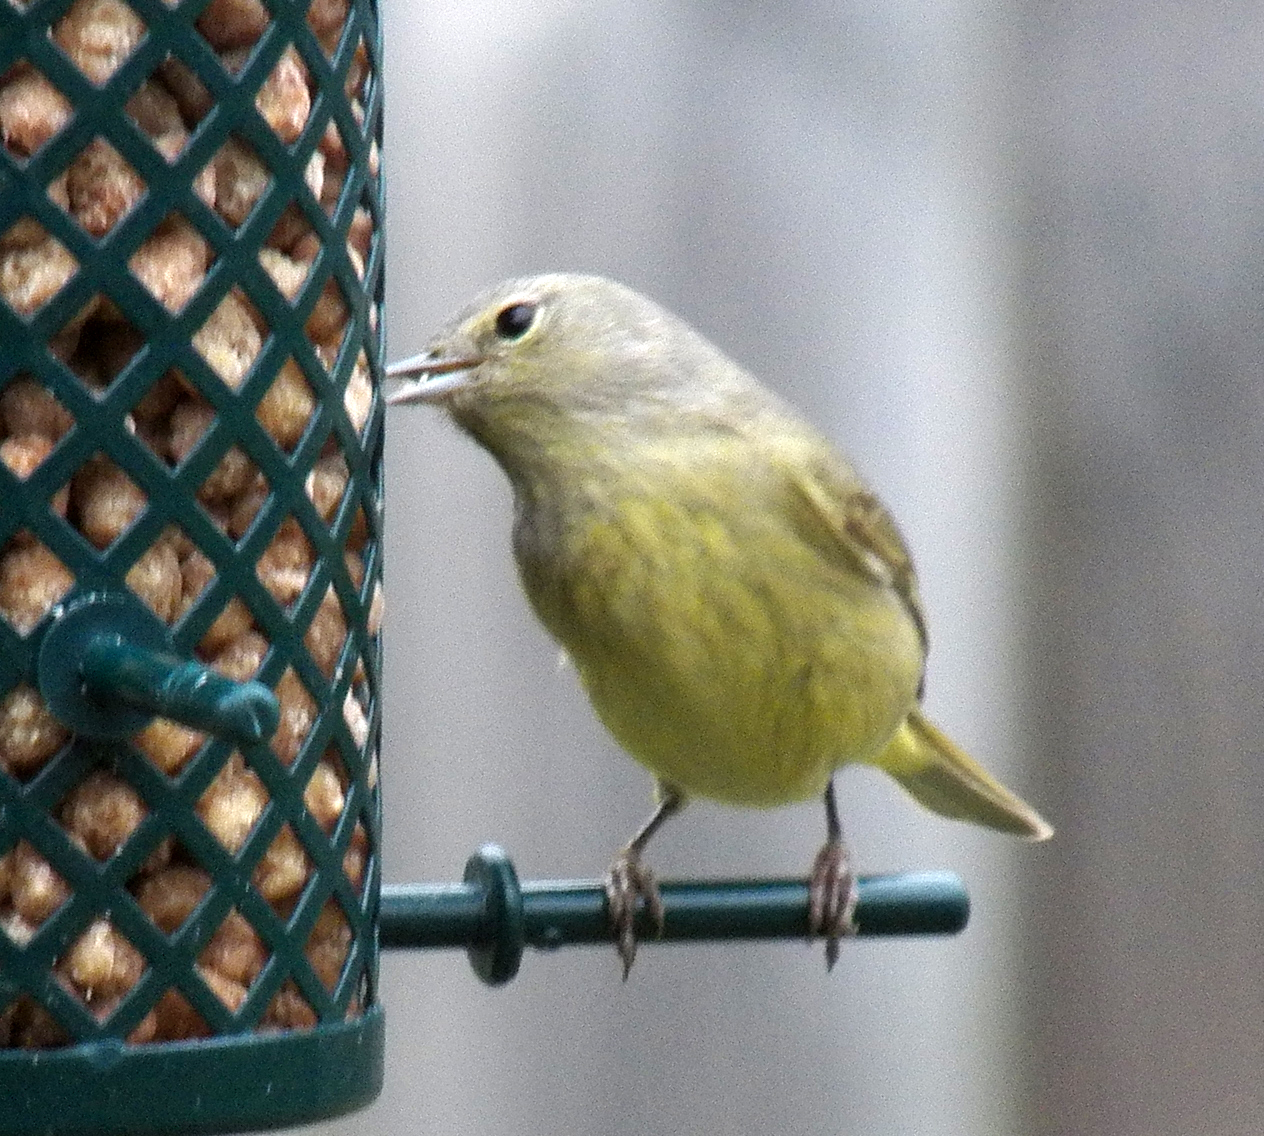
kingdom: Animalia
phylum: Chordata
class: Aves
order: Passeriformes
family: Parulidae
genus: Leiothlypis
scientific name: Leiothlypis celata
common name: Orange-crowned warbler
